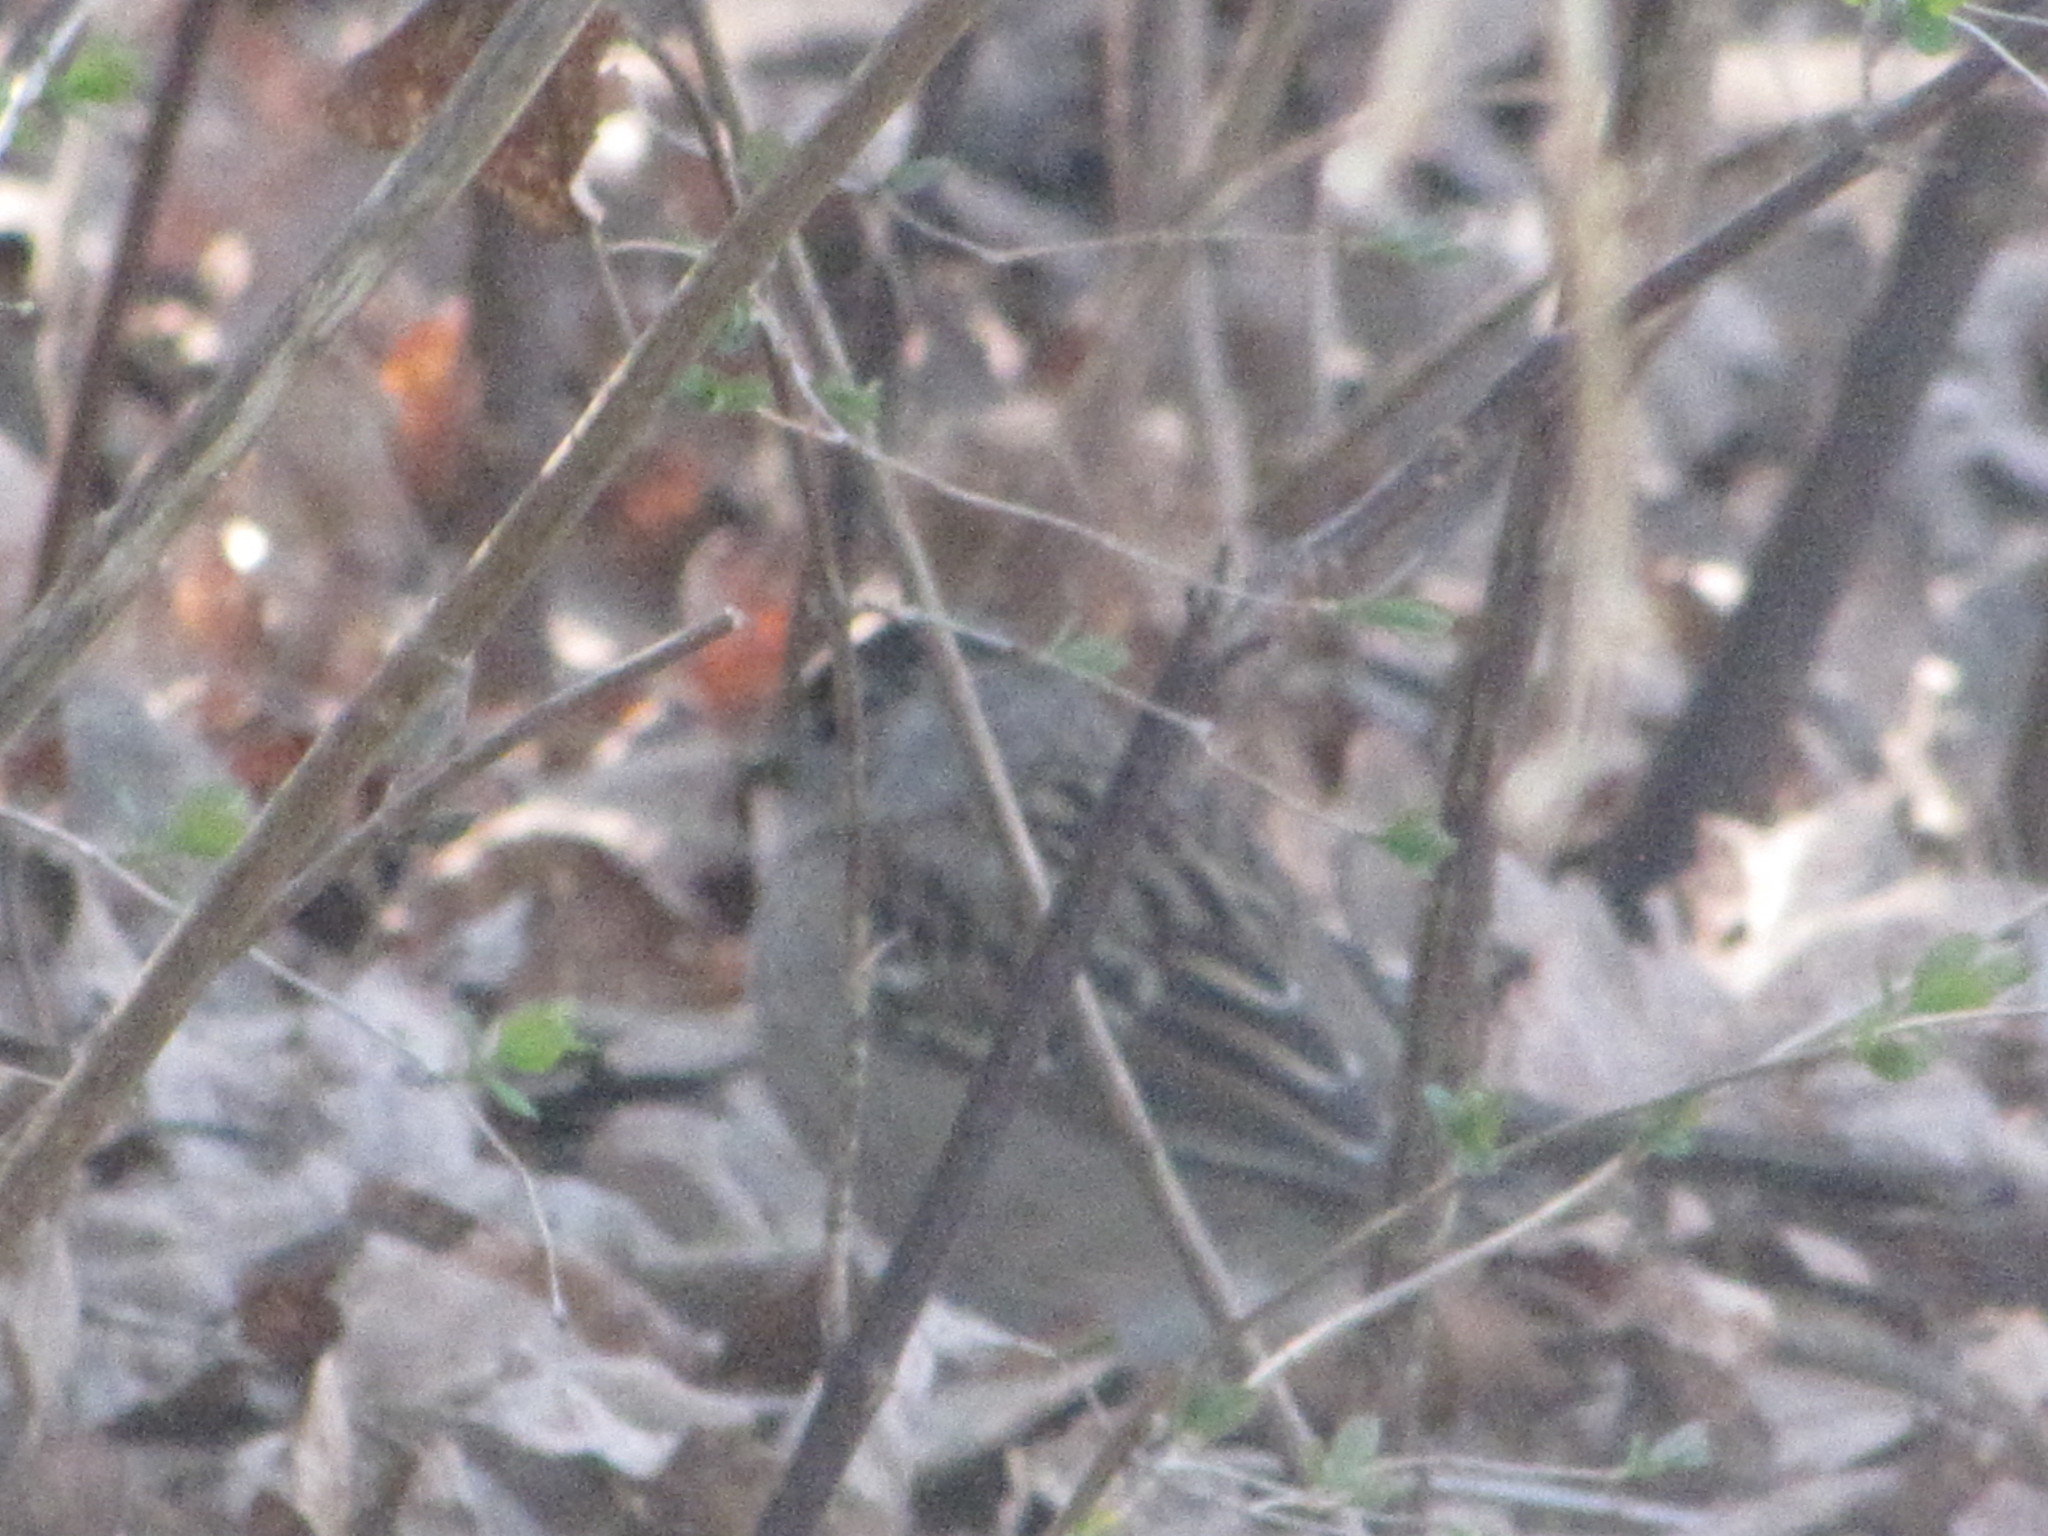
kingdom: Animalia
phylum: Chordata
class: Aves
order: Passeriformes
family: Passerellidae
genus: Zonotrichia
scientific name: Zonotrichia atricapilla
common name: Golden-crowned sparrow
